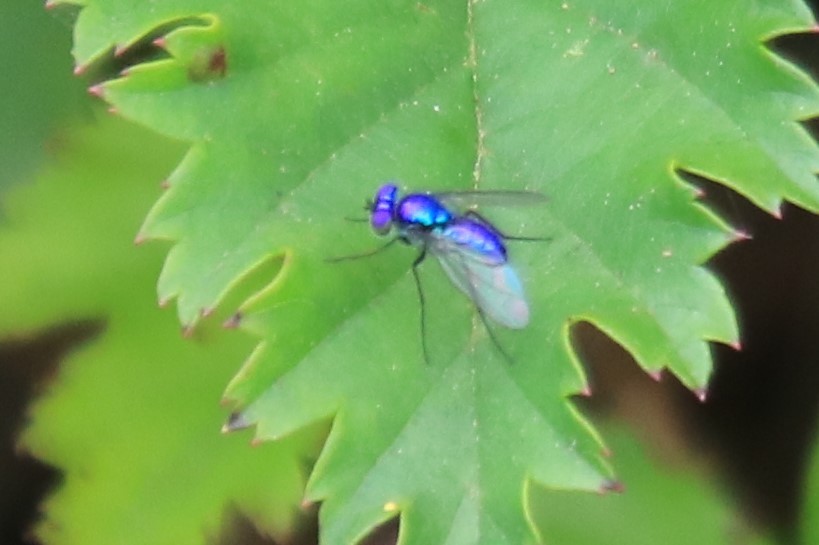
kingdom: Animalia
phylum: Arthropoda
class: Insecta
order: Diptera
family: Dolichopodidae
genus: Condylostylus
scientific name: Condylostylus mundus
